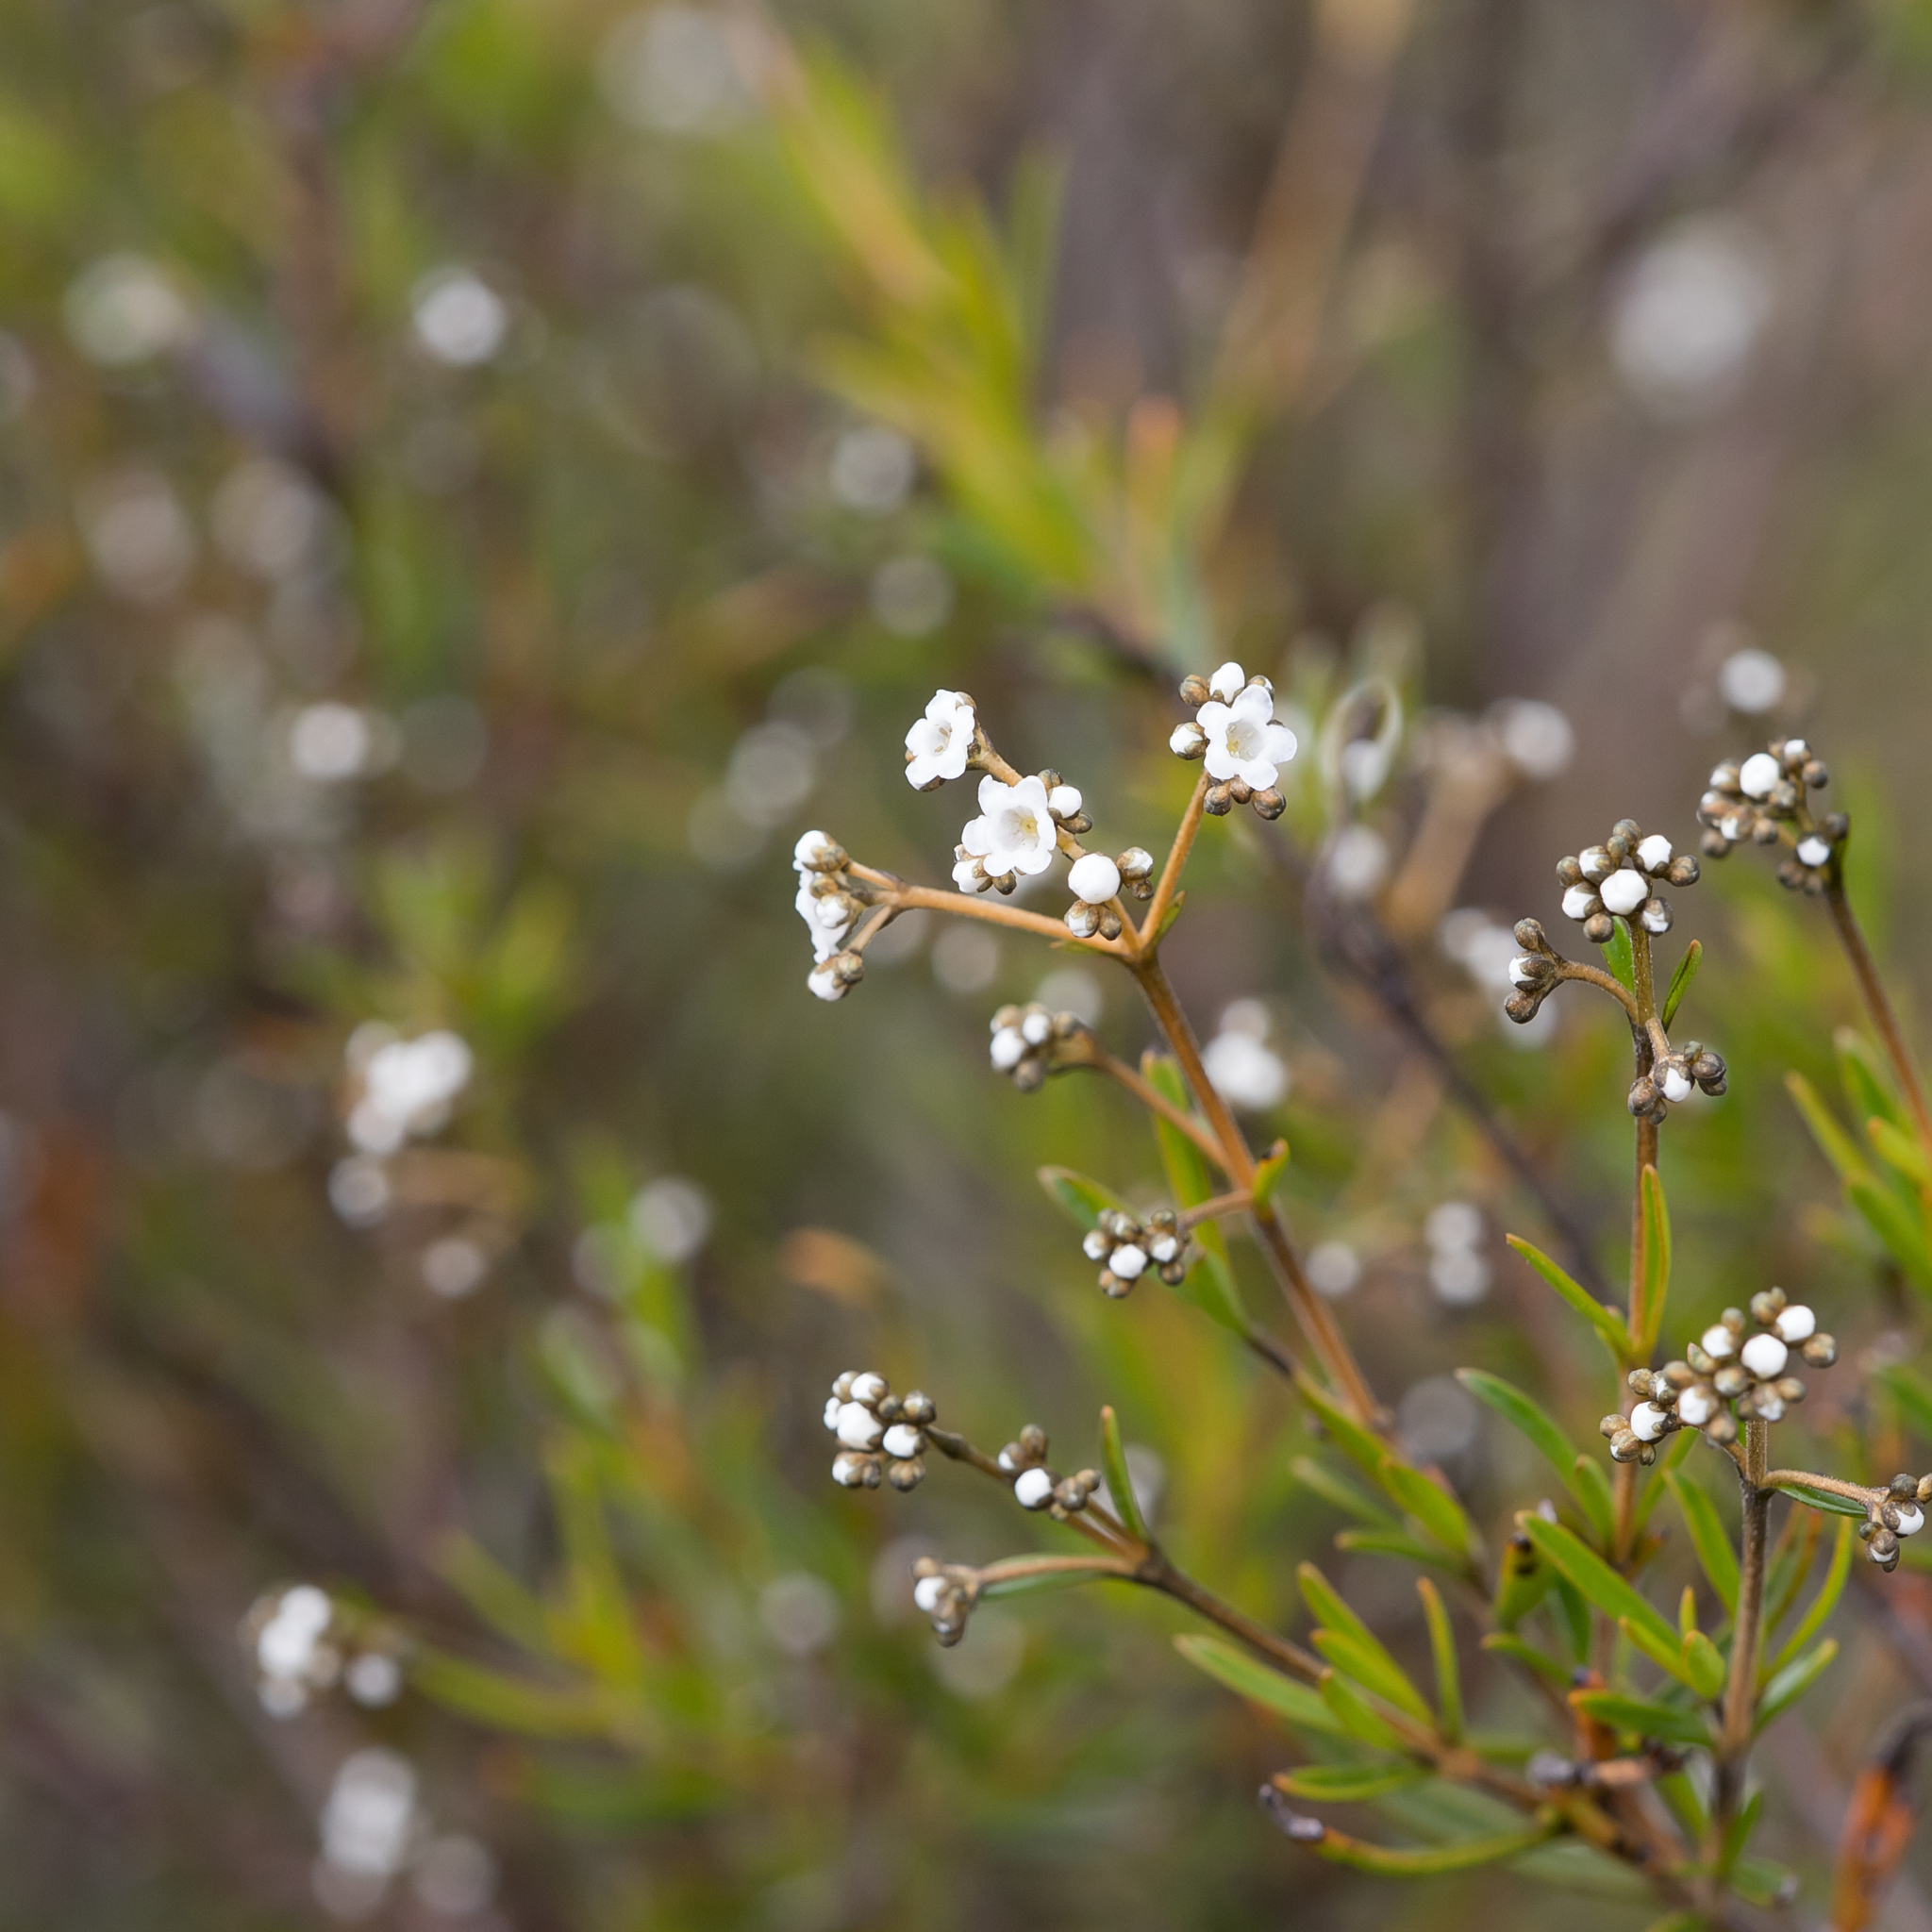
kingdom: Plantae
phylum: Tracheophyta
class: Magnoliopsida
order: Gentianales
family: Loganiaceae
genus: Logania
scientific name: Logania linifolia
